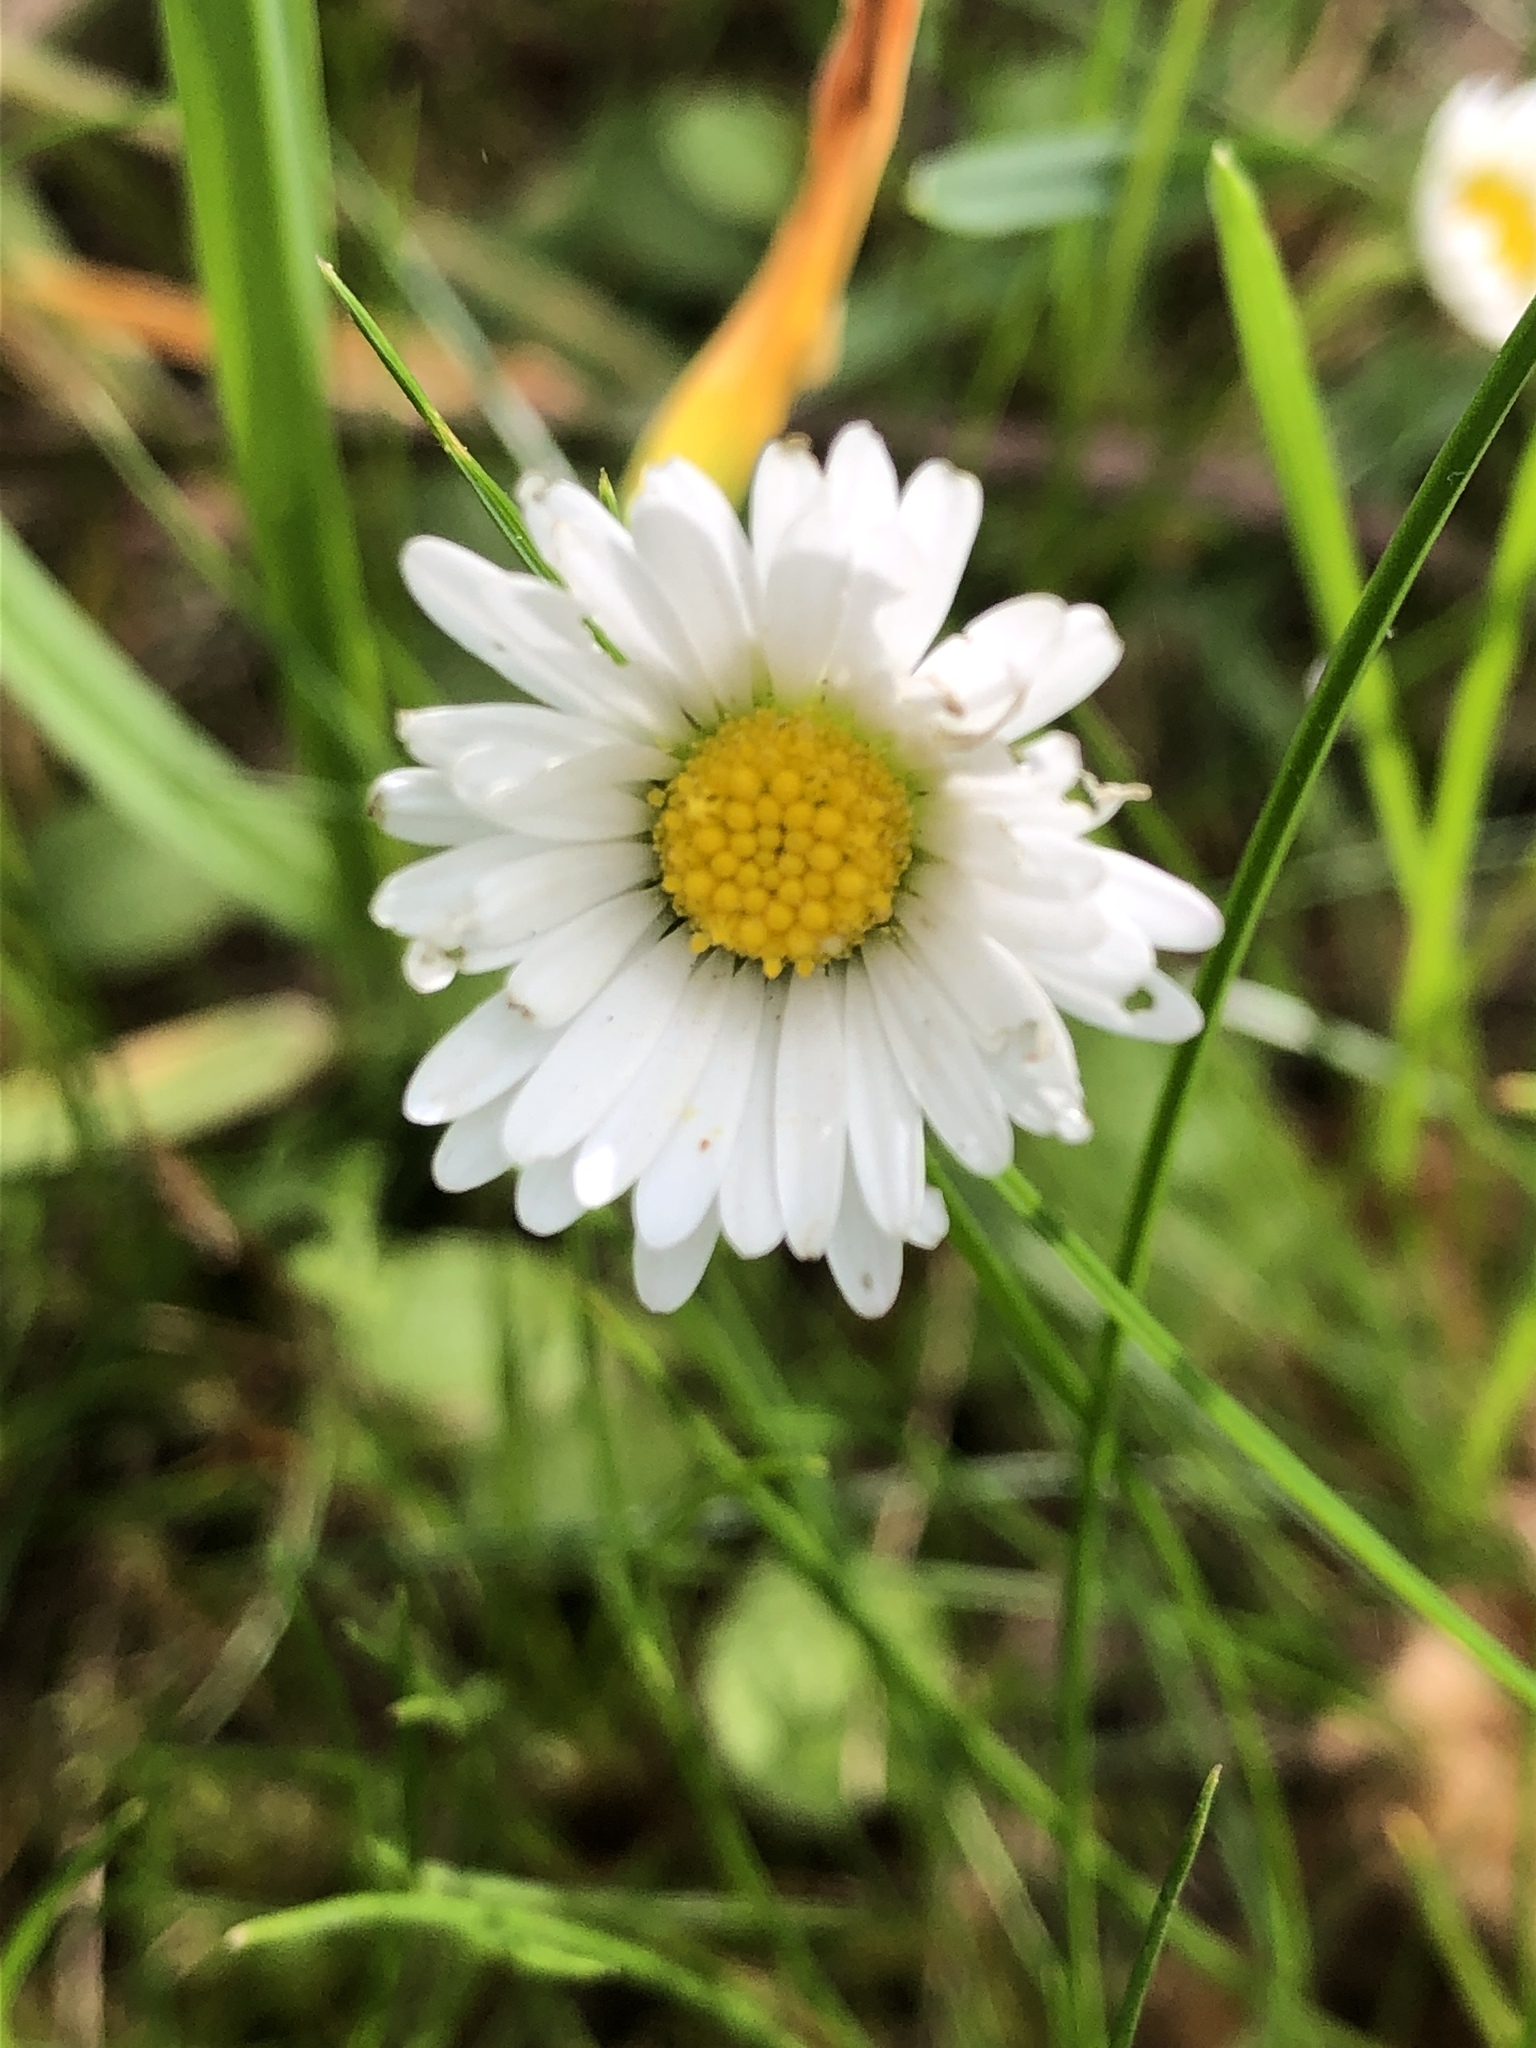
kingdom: Plantae
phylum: Tracheophyta
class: Magnoliopsida
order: Asterales
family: Asteraceae
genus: Bellis
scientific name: Bellis perennis
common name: Lawndaisy
